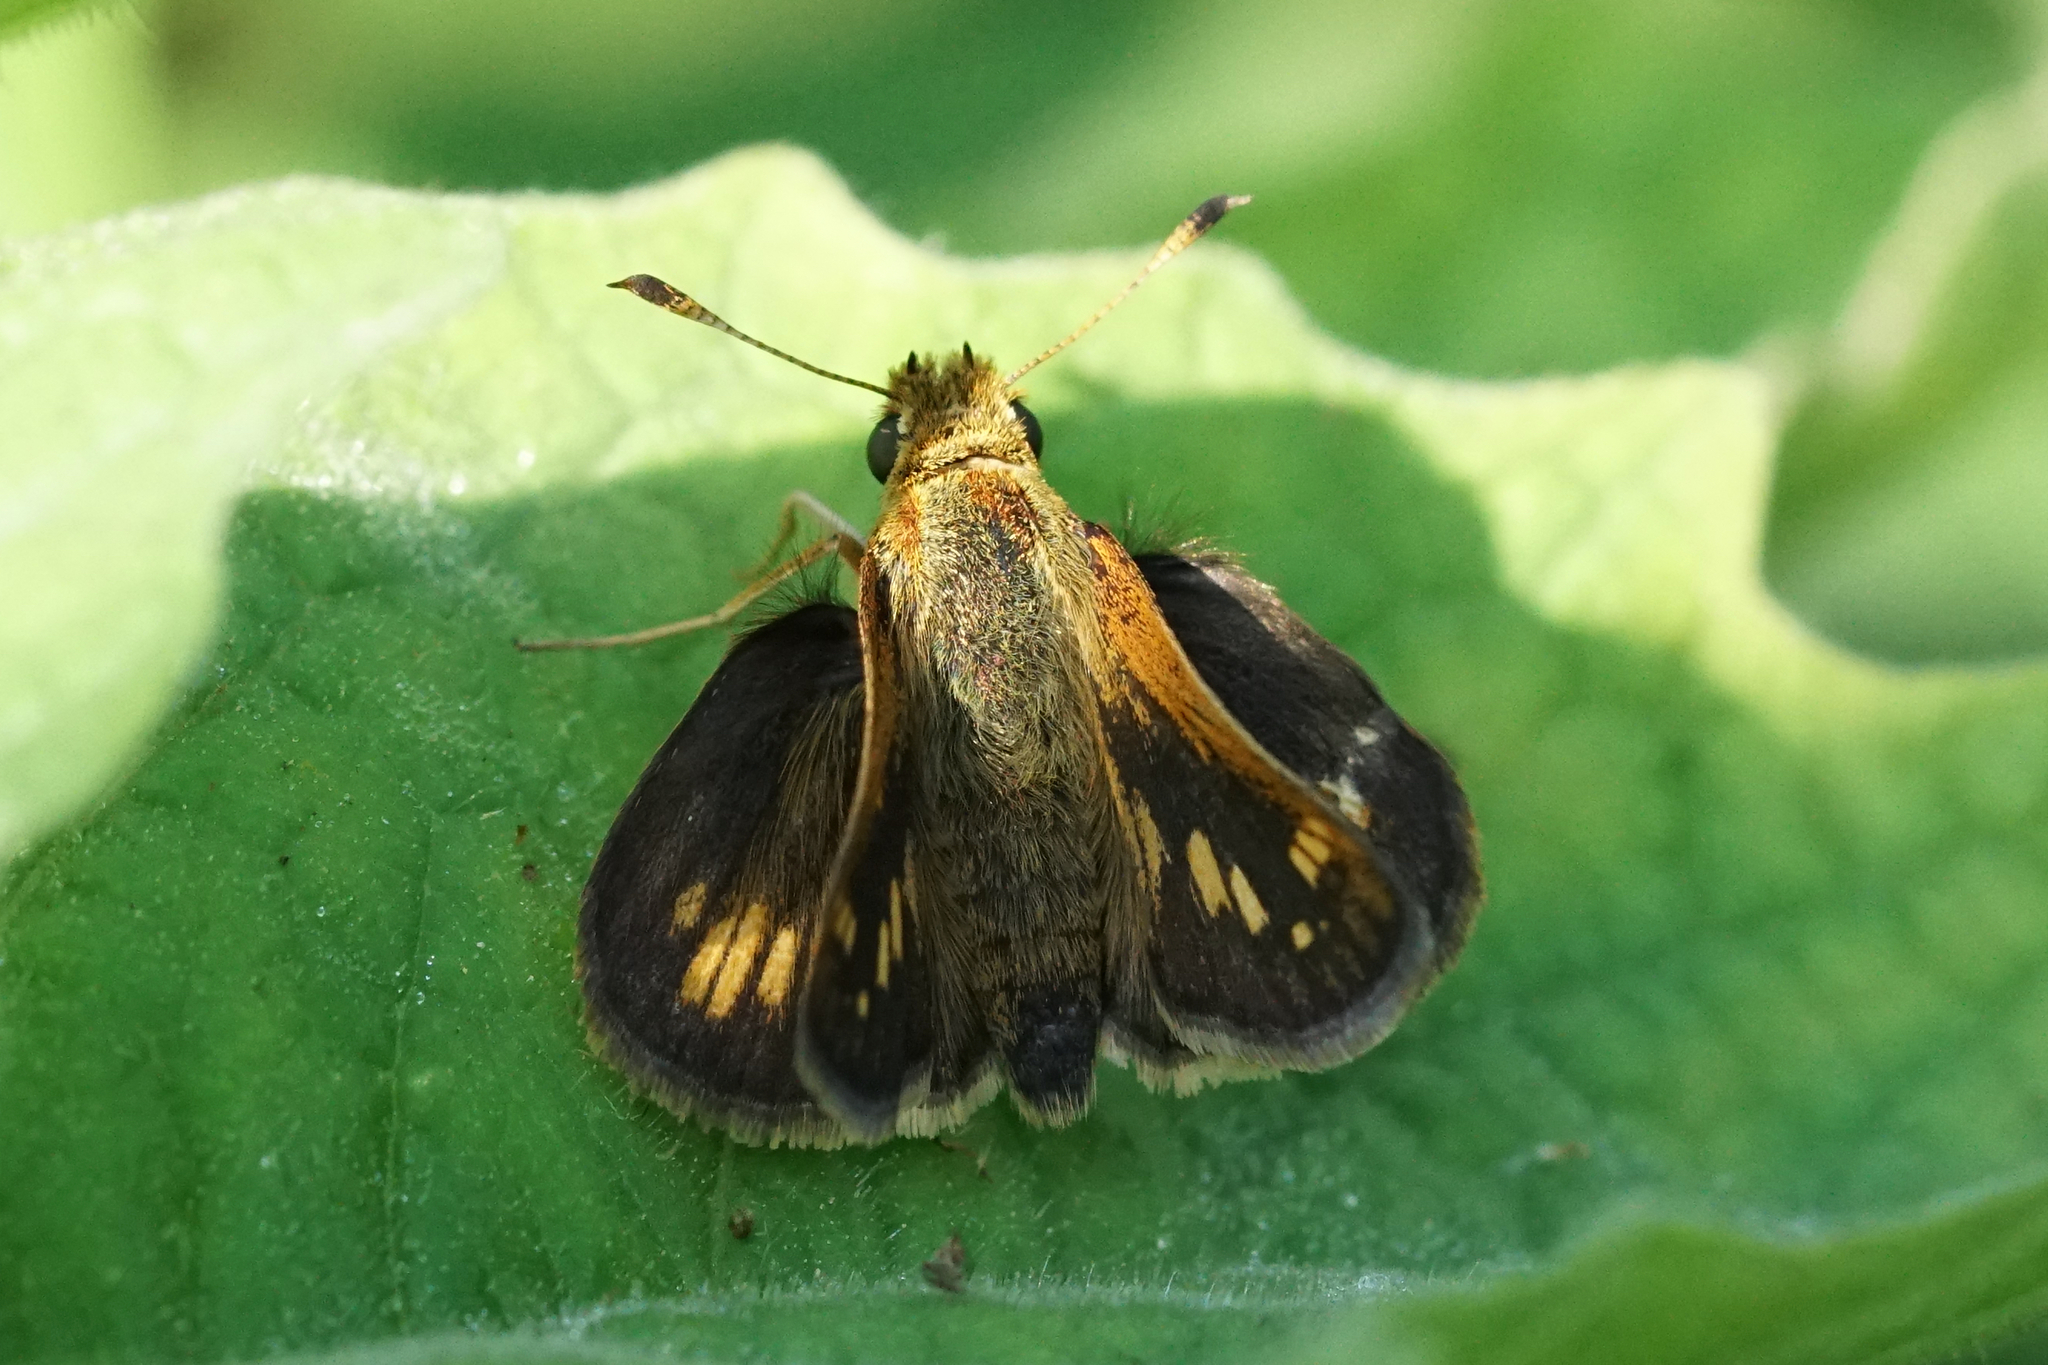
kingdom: Animalia
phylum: Arthropoda
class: Insecta
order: Lepidoptera
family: Hesperiidae
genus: Polites
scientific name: Polites coras
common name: Peck's skipper
